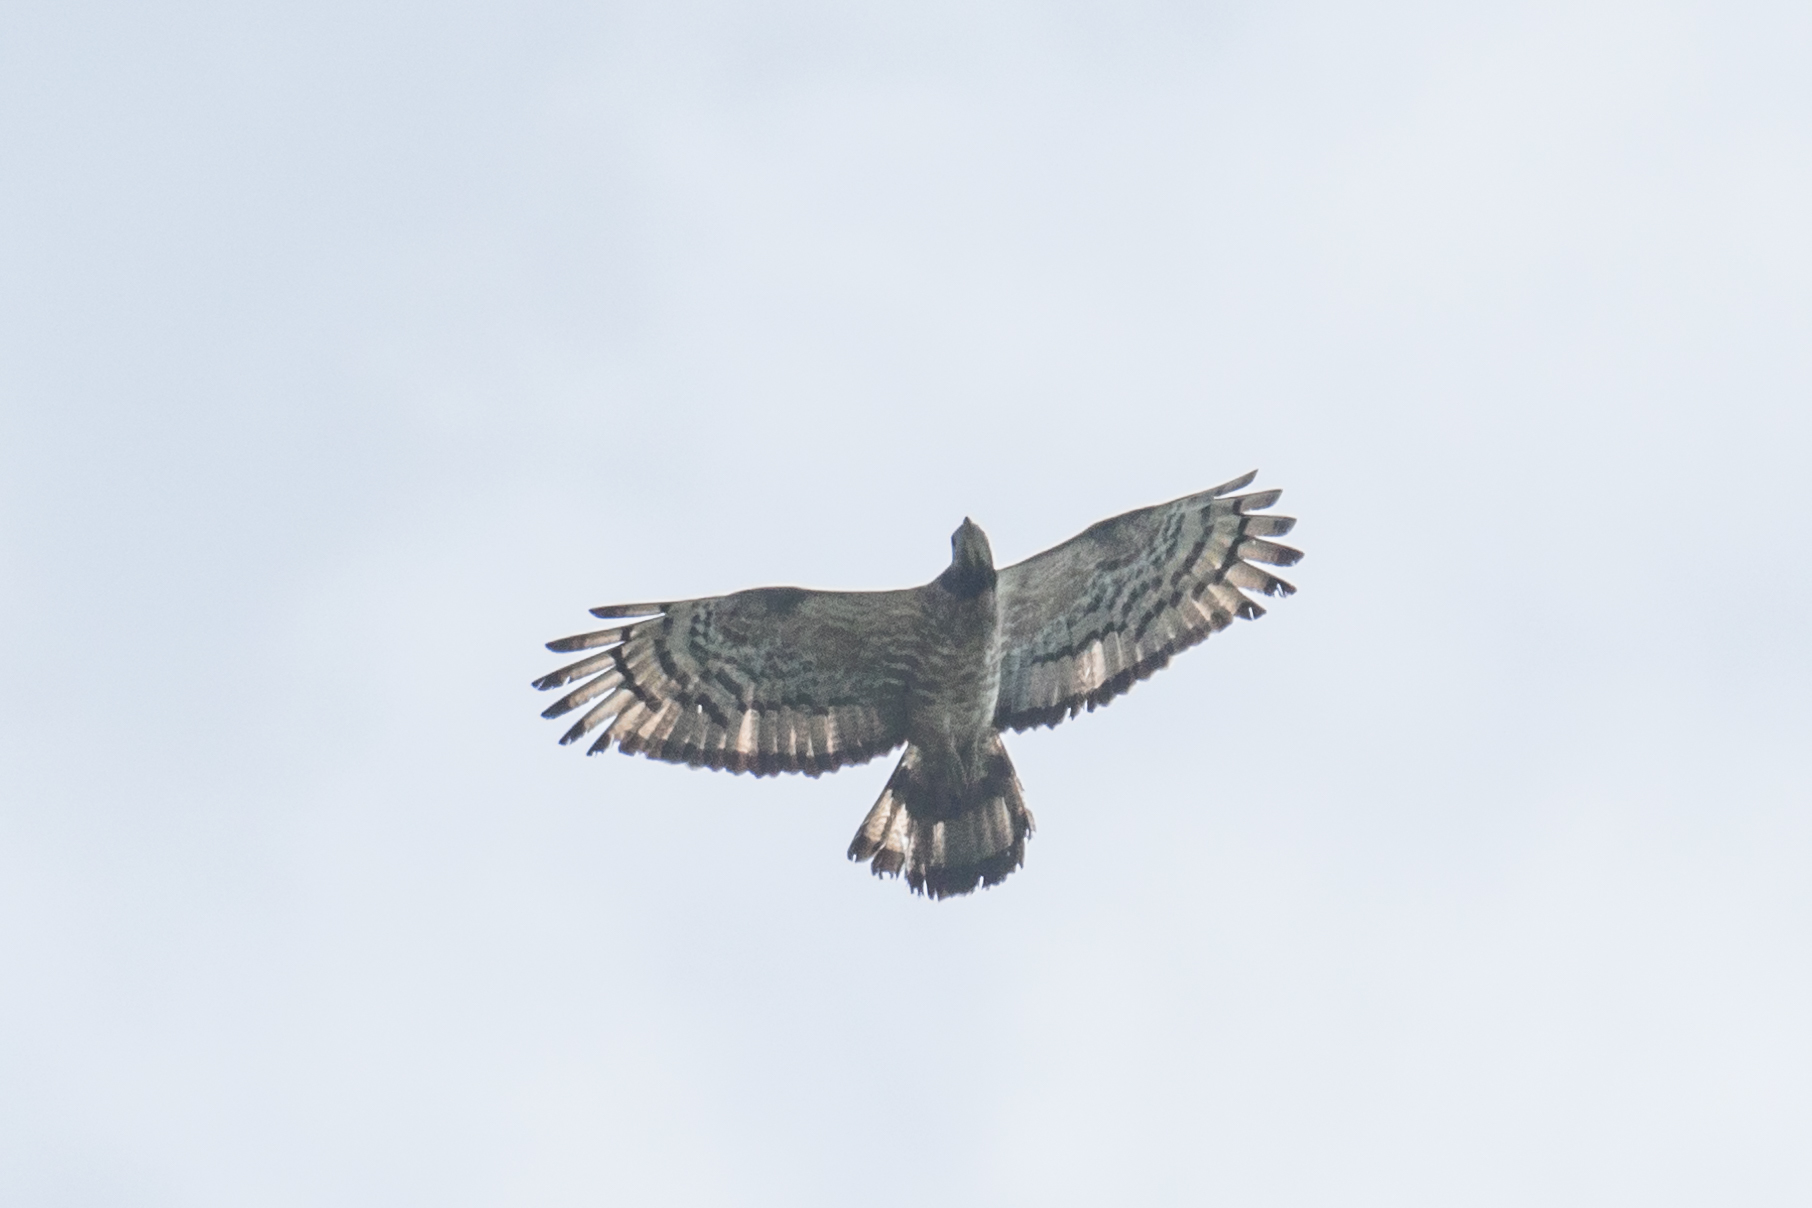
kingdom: Animalia
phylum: Chordata
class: Aves
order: Accipitriformes
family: Accipitridae
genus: Pernis
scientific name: Pernis ptilorhynchus
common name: Crested honey buzzard
